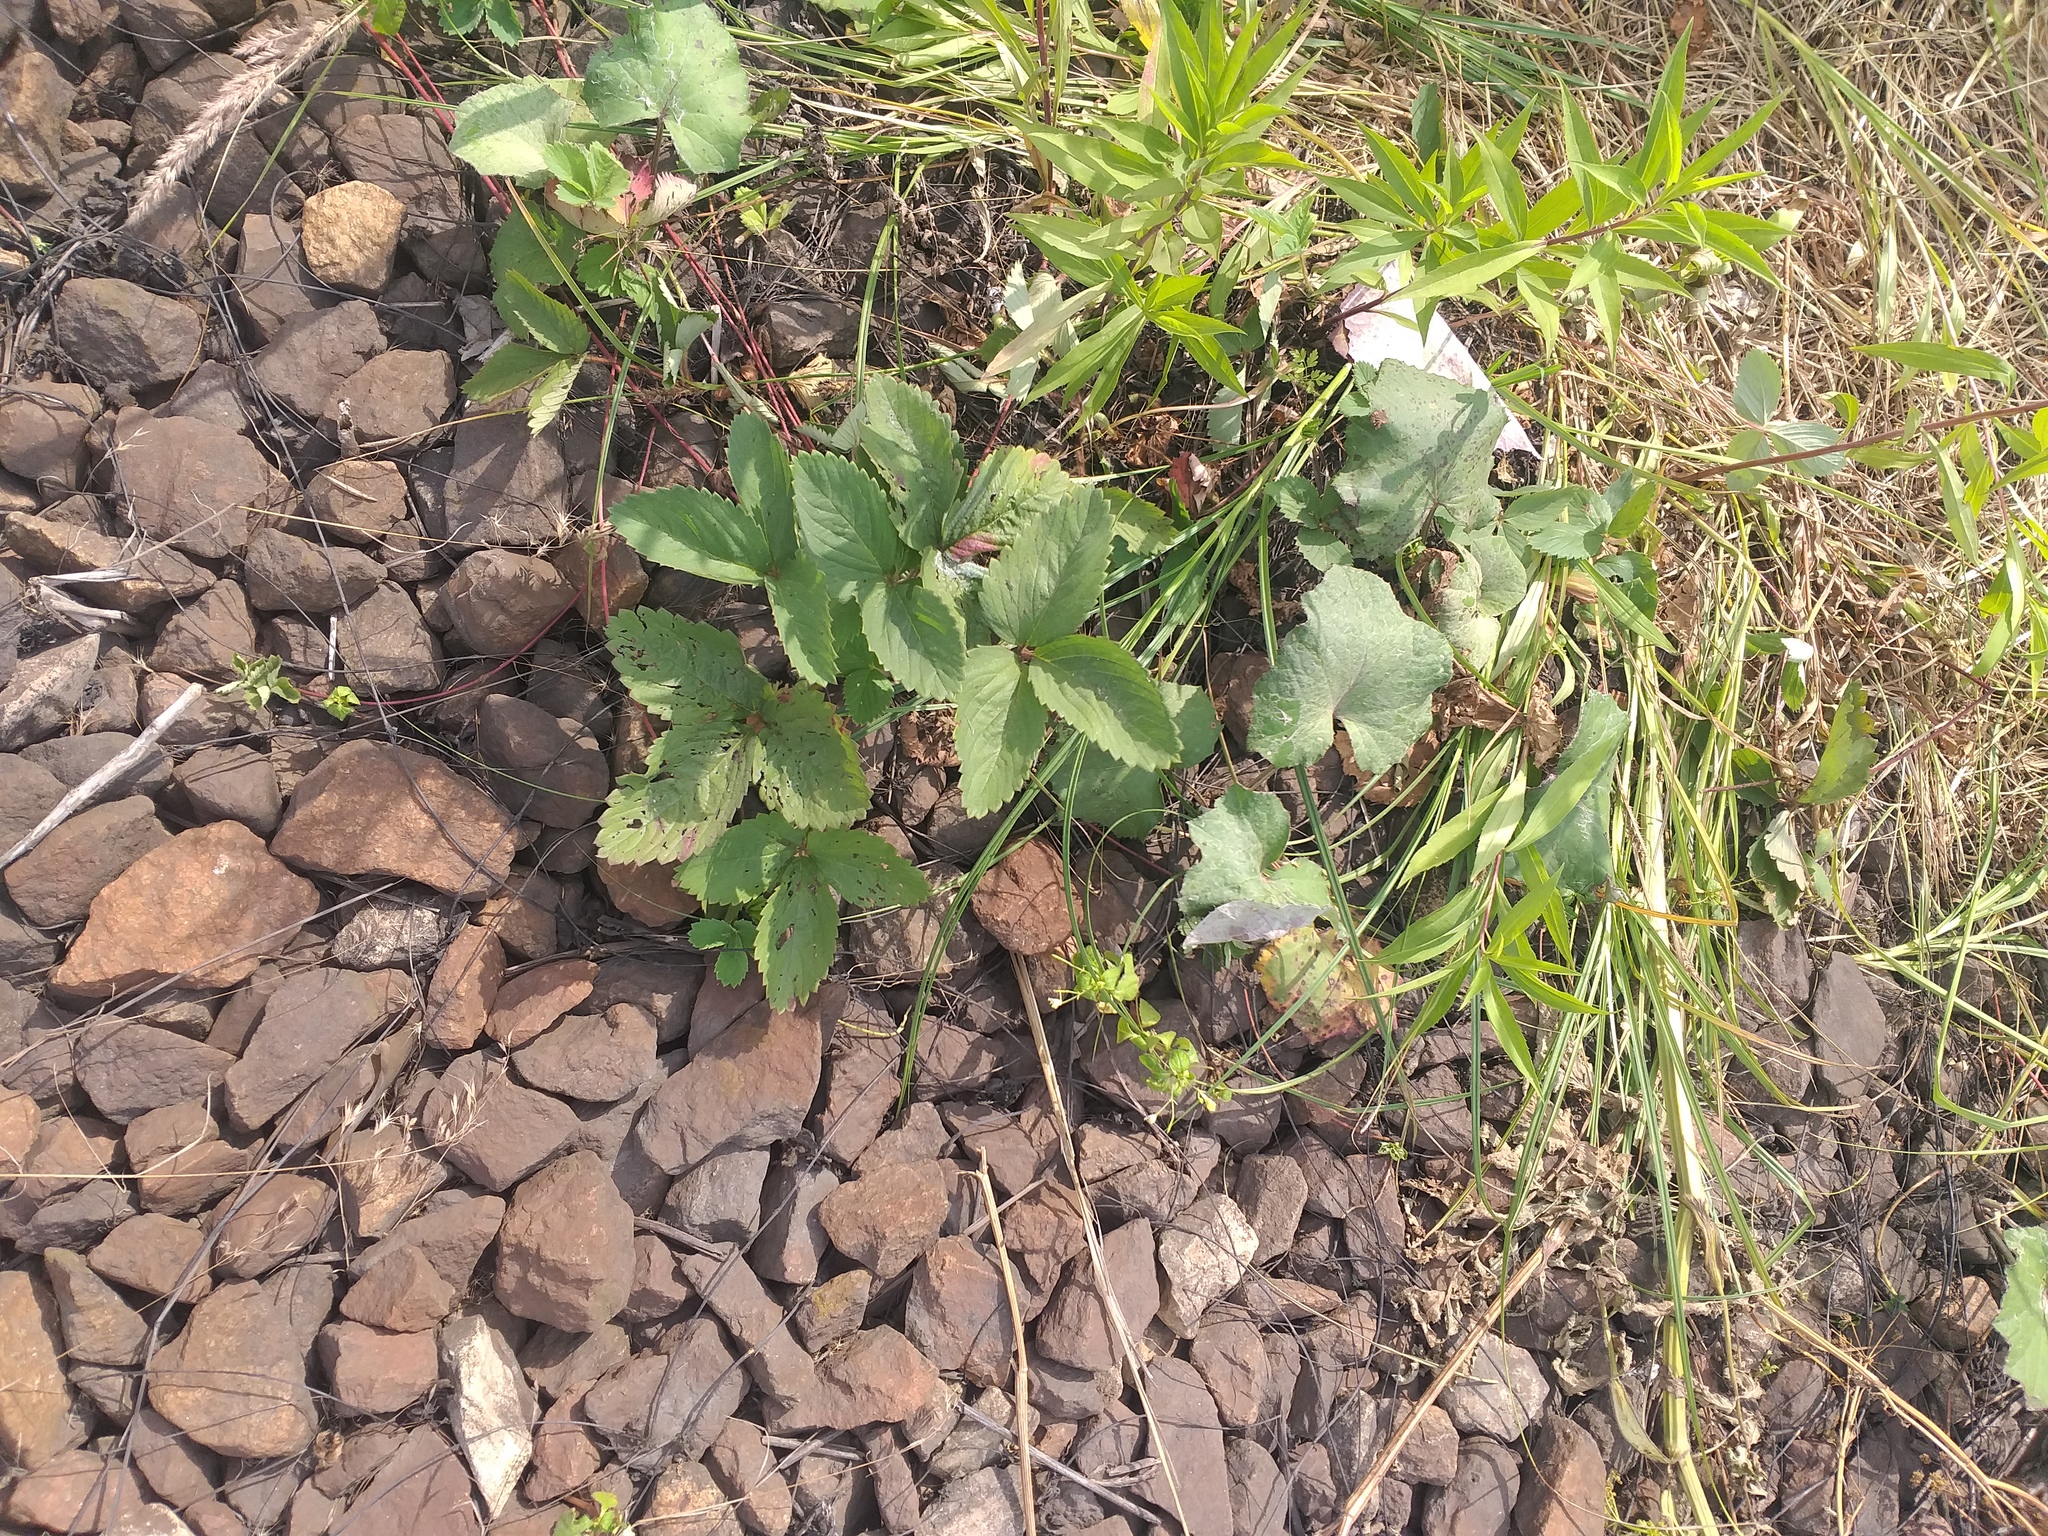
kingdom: Plantae
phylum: Tracheophyta
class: Magnoliopsida
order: Rosales
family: Rosaceae
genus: Fragaria
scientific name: Fragaria ananassa
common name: Garden strawberry
